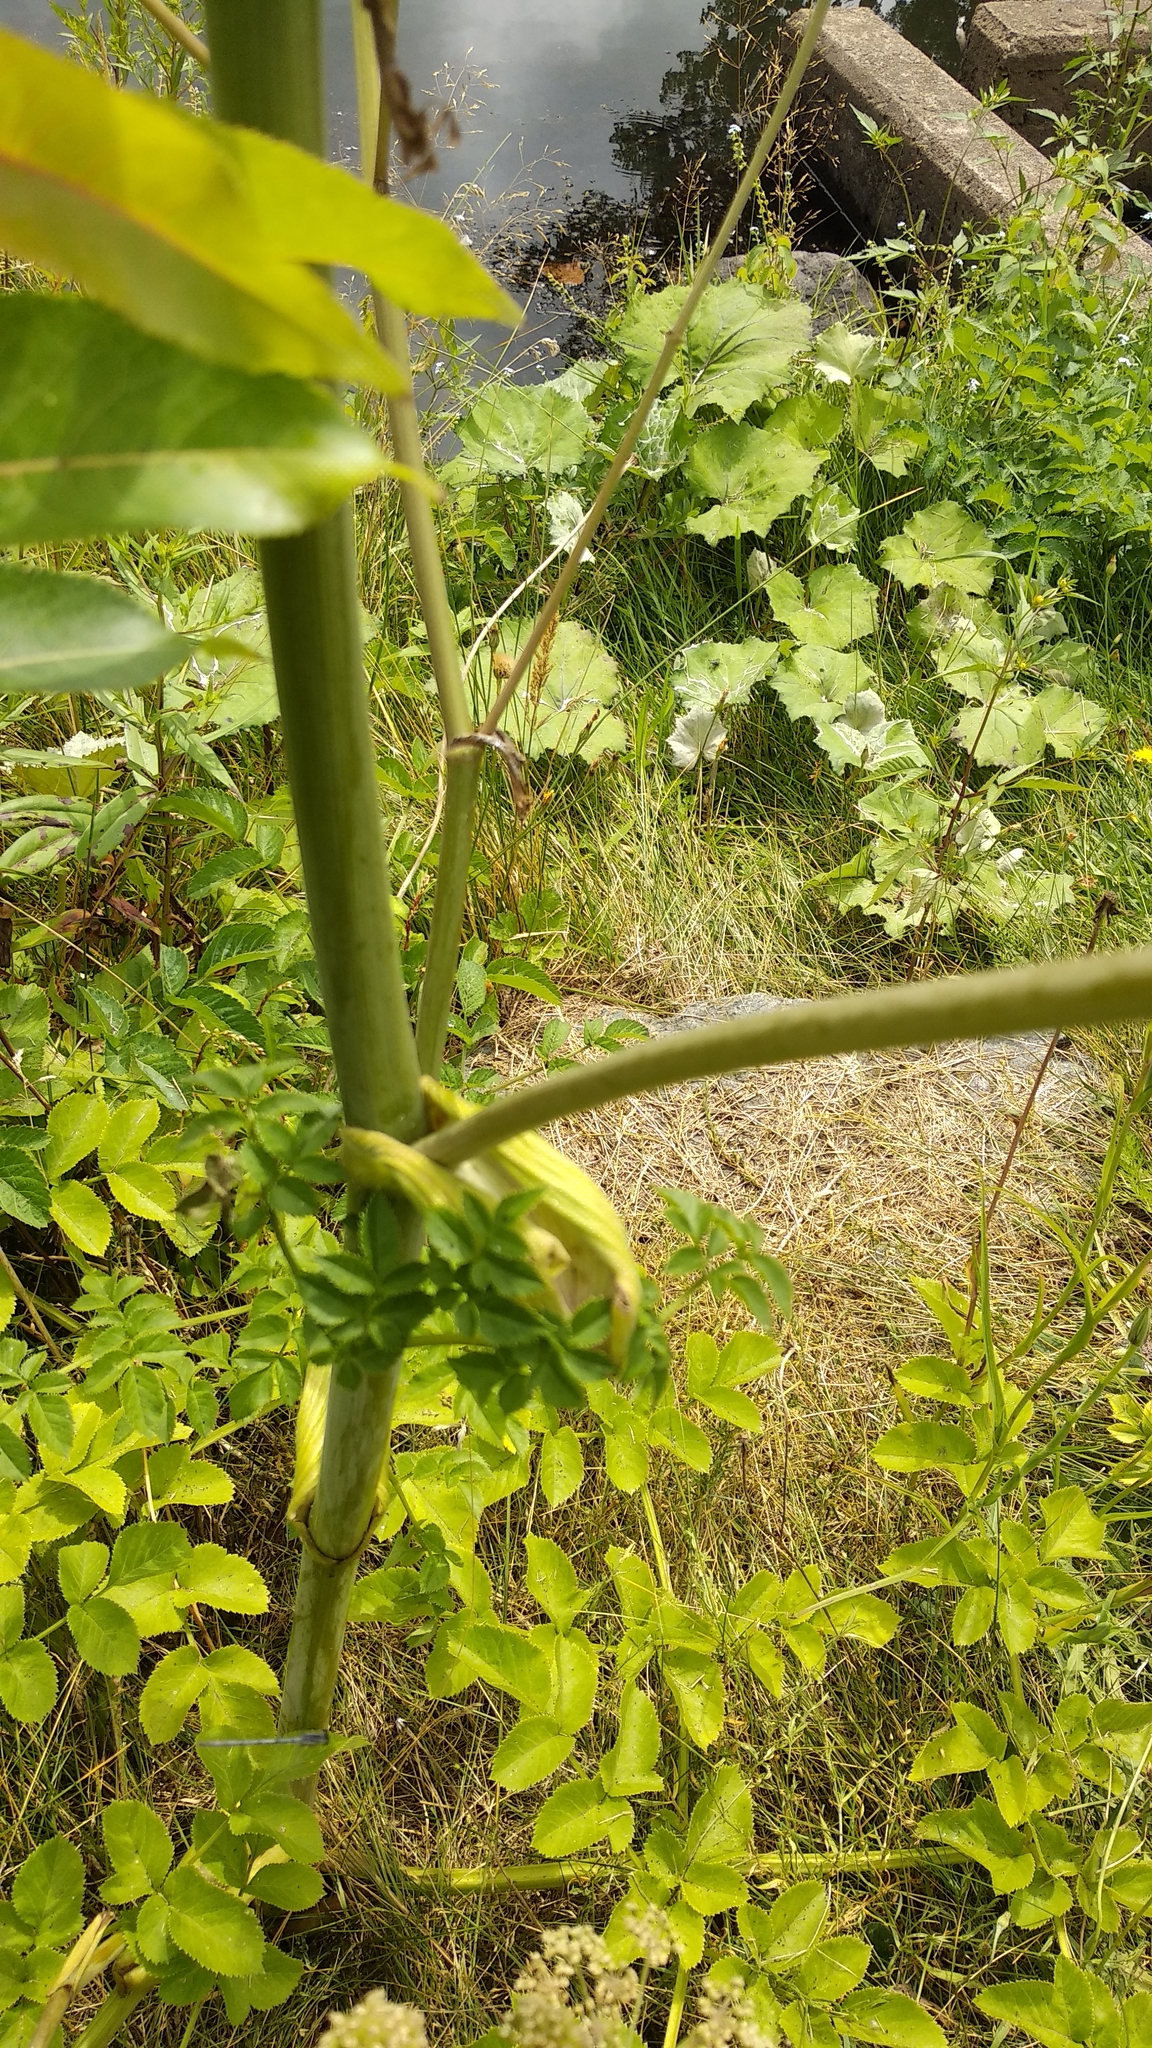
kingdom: Plantae
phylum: Tracheophyta
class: Magnoliopsida
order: Apiales
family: Apiaceae
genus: Angelica
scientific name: Angelica sylvestris
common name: Wild angelica
